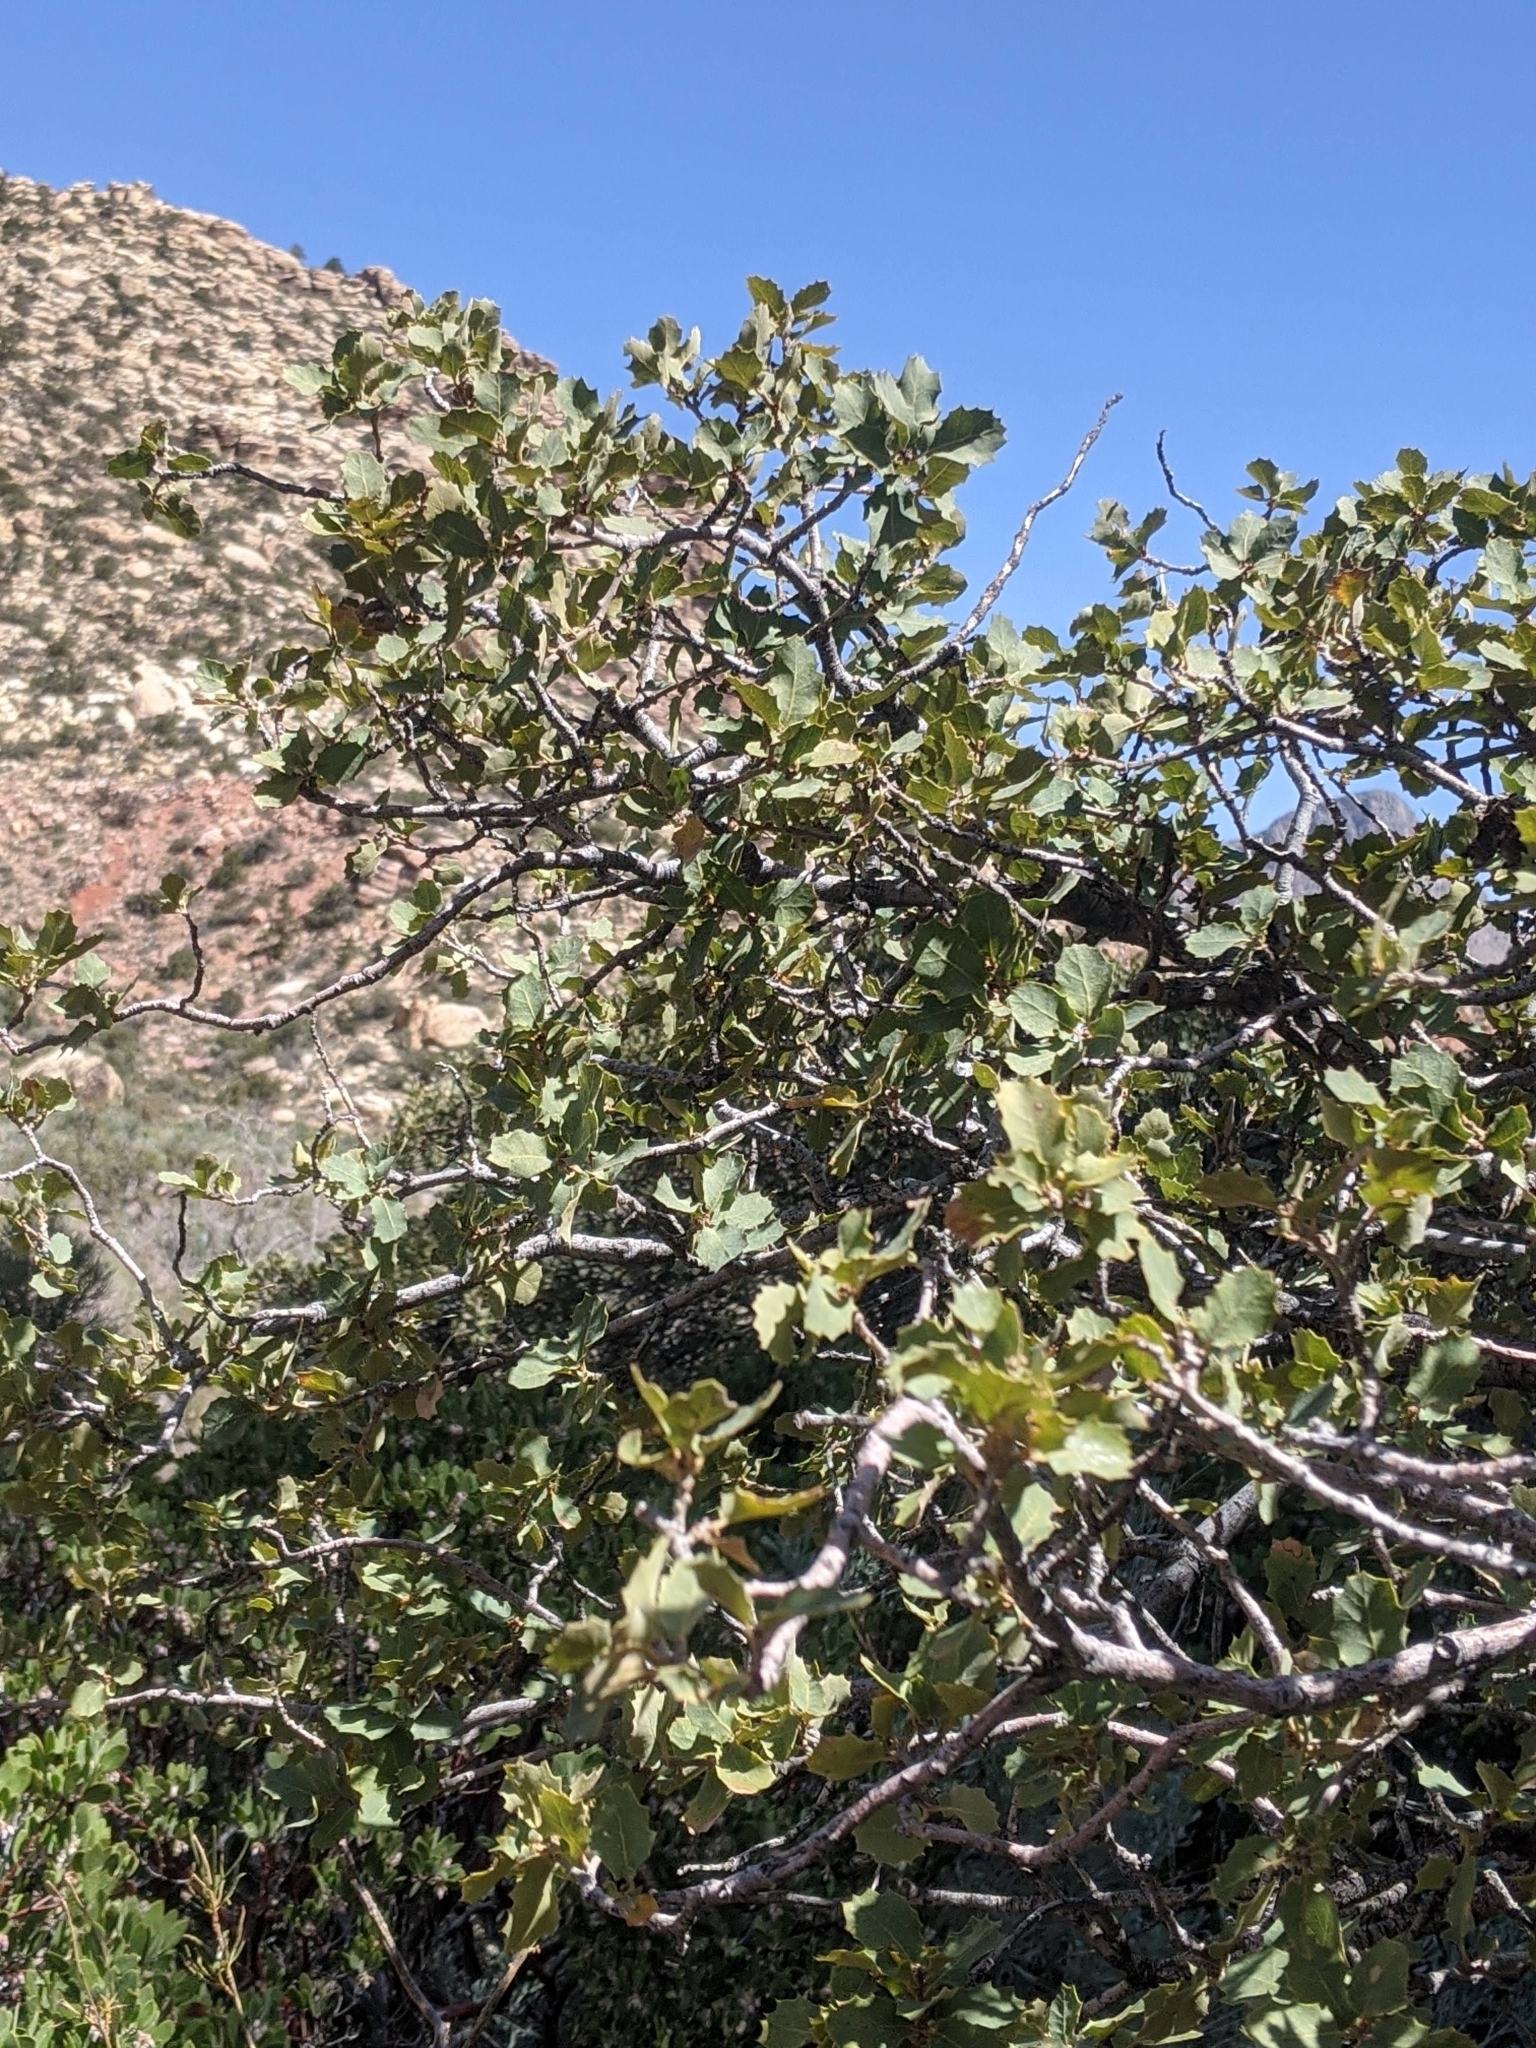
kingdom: Plantae
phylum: Tracheophyta
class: Magnoliopsida
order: Fagales
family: Fagaceae
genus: Quercus
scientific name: Quercus turbinella
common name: Sonoran scrub oak
